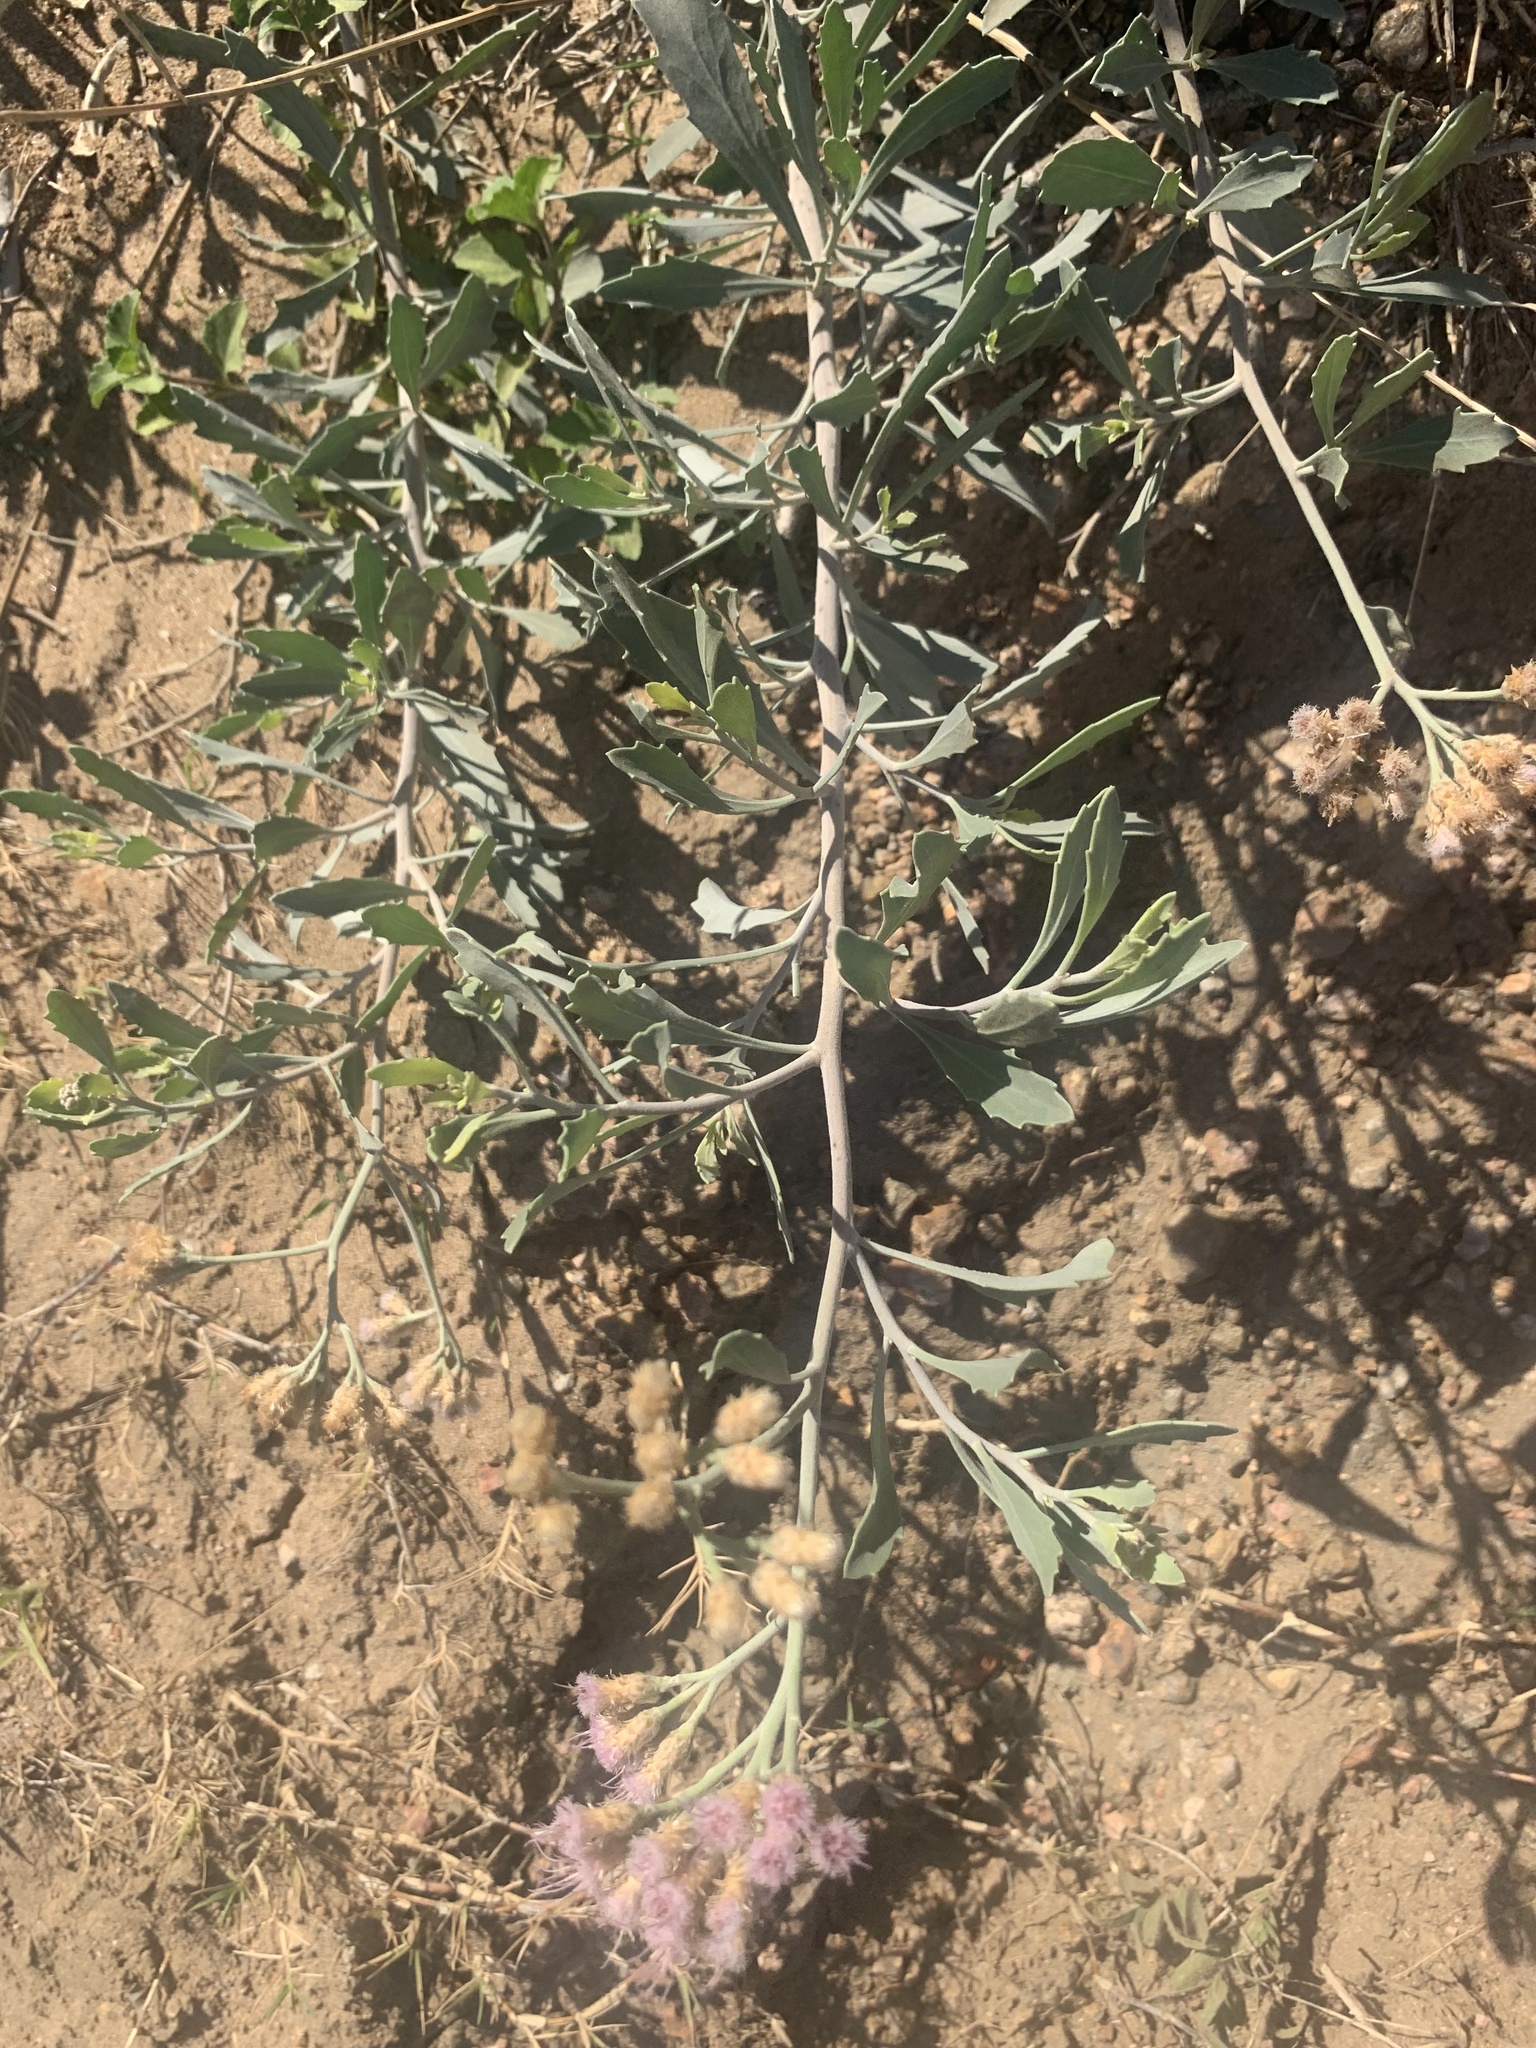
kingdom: Plantae
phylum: Tracheophyta
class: Magnoliopsida
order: Asterales
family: Asteraceae
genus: Tessaria
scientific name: Tessaria absinthioides
